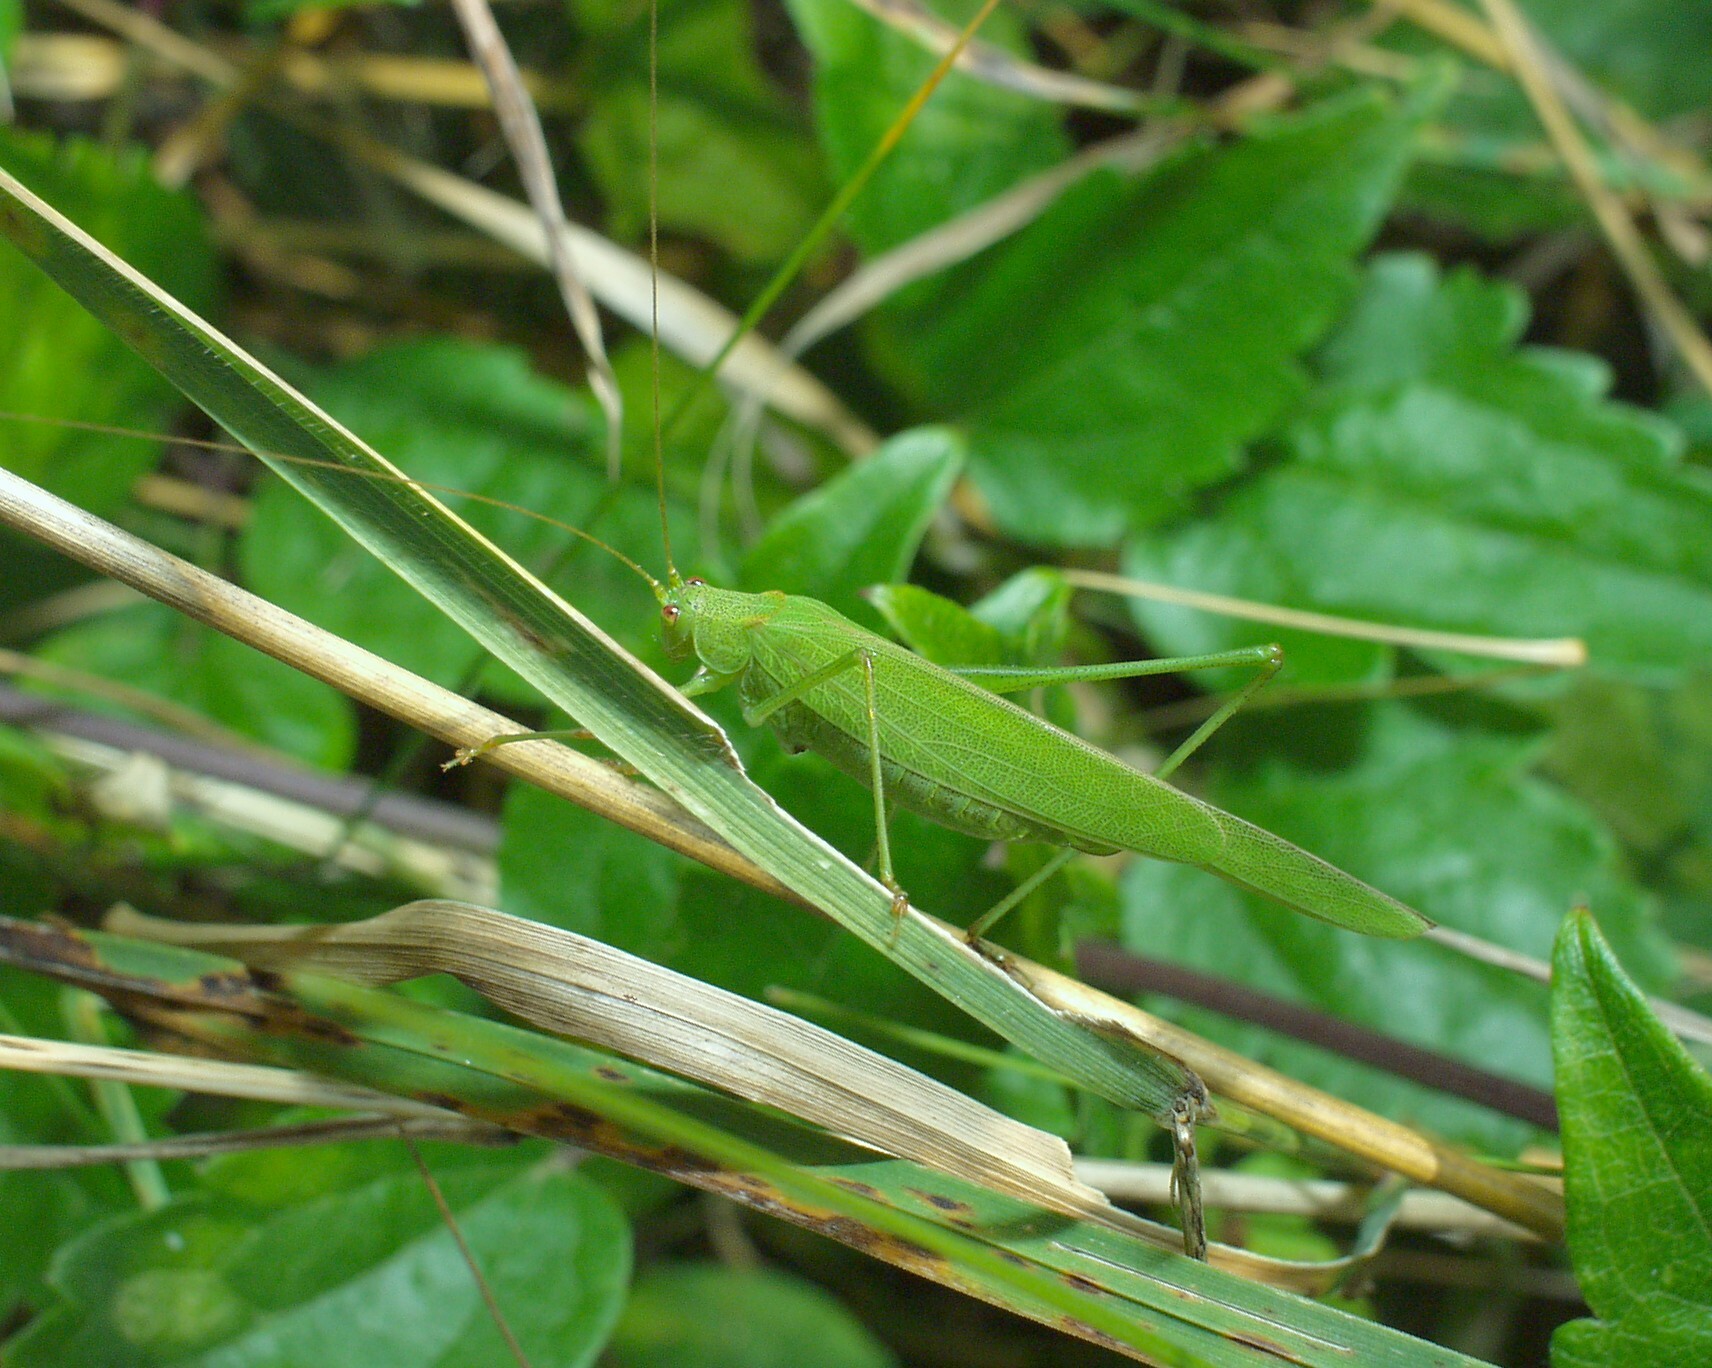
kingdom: Animalia
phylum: Arthropoda
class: Insecta
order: Orthoptera
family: Tettigoniidae
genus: Phaneroptera
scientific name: Phaneroptera falcata
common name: Sickle-bearing bush-cricket
